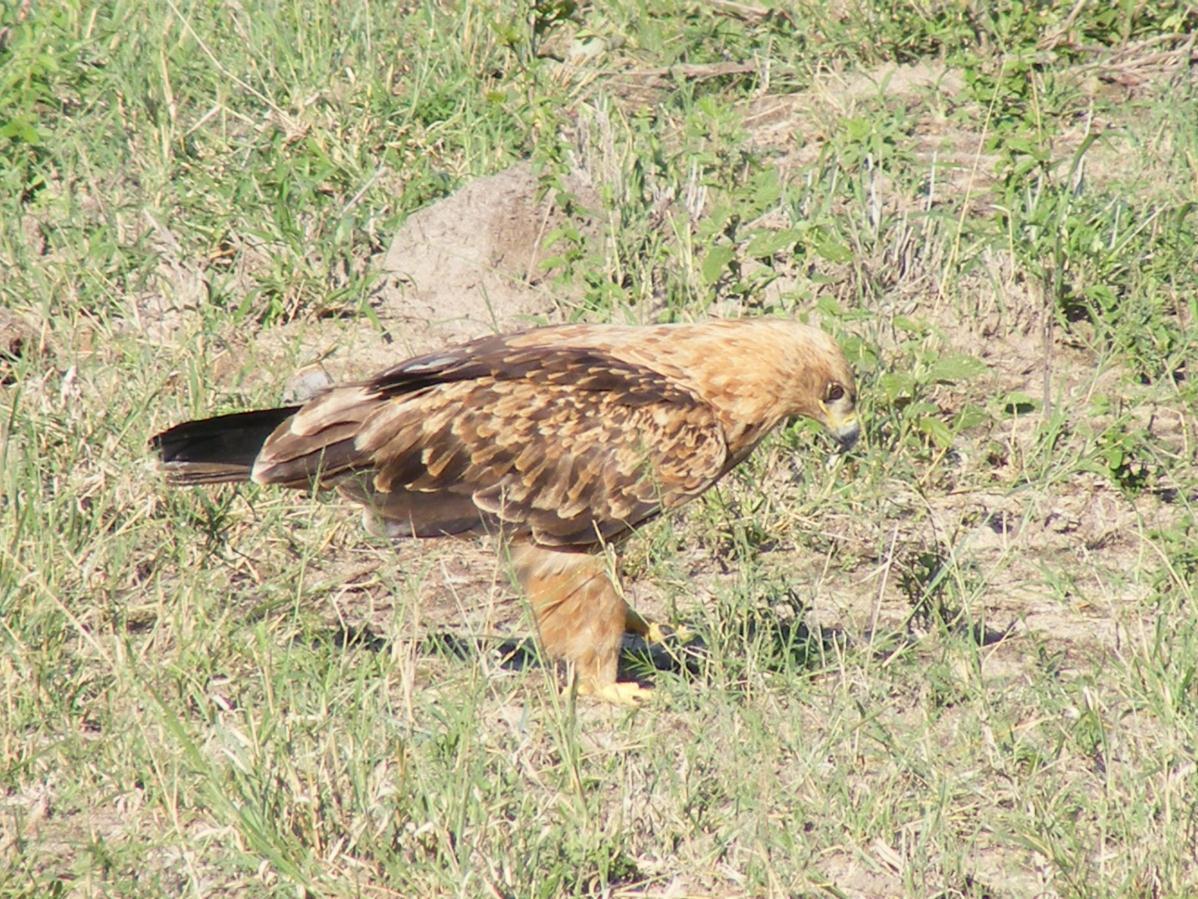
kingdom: Animalia
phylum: Chordata
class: Aves
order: Accipitriformes
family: Accipitridae
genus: Aquila
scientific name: Aquila rapax
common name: Tawny eagle
